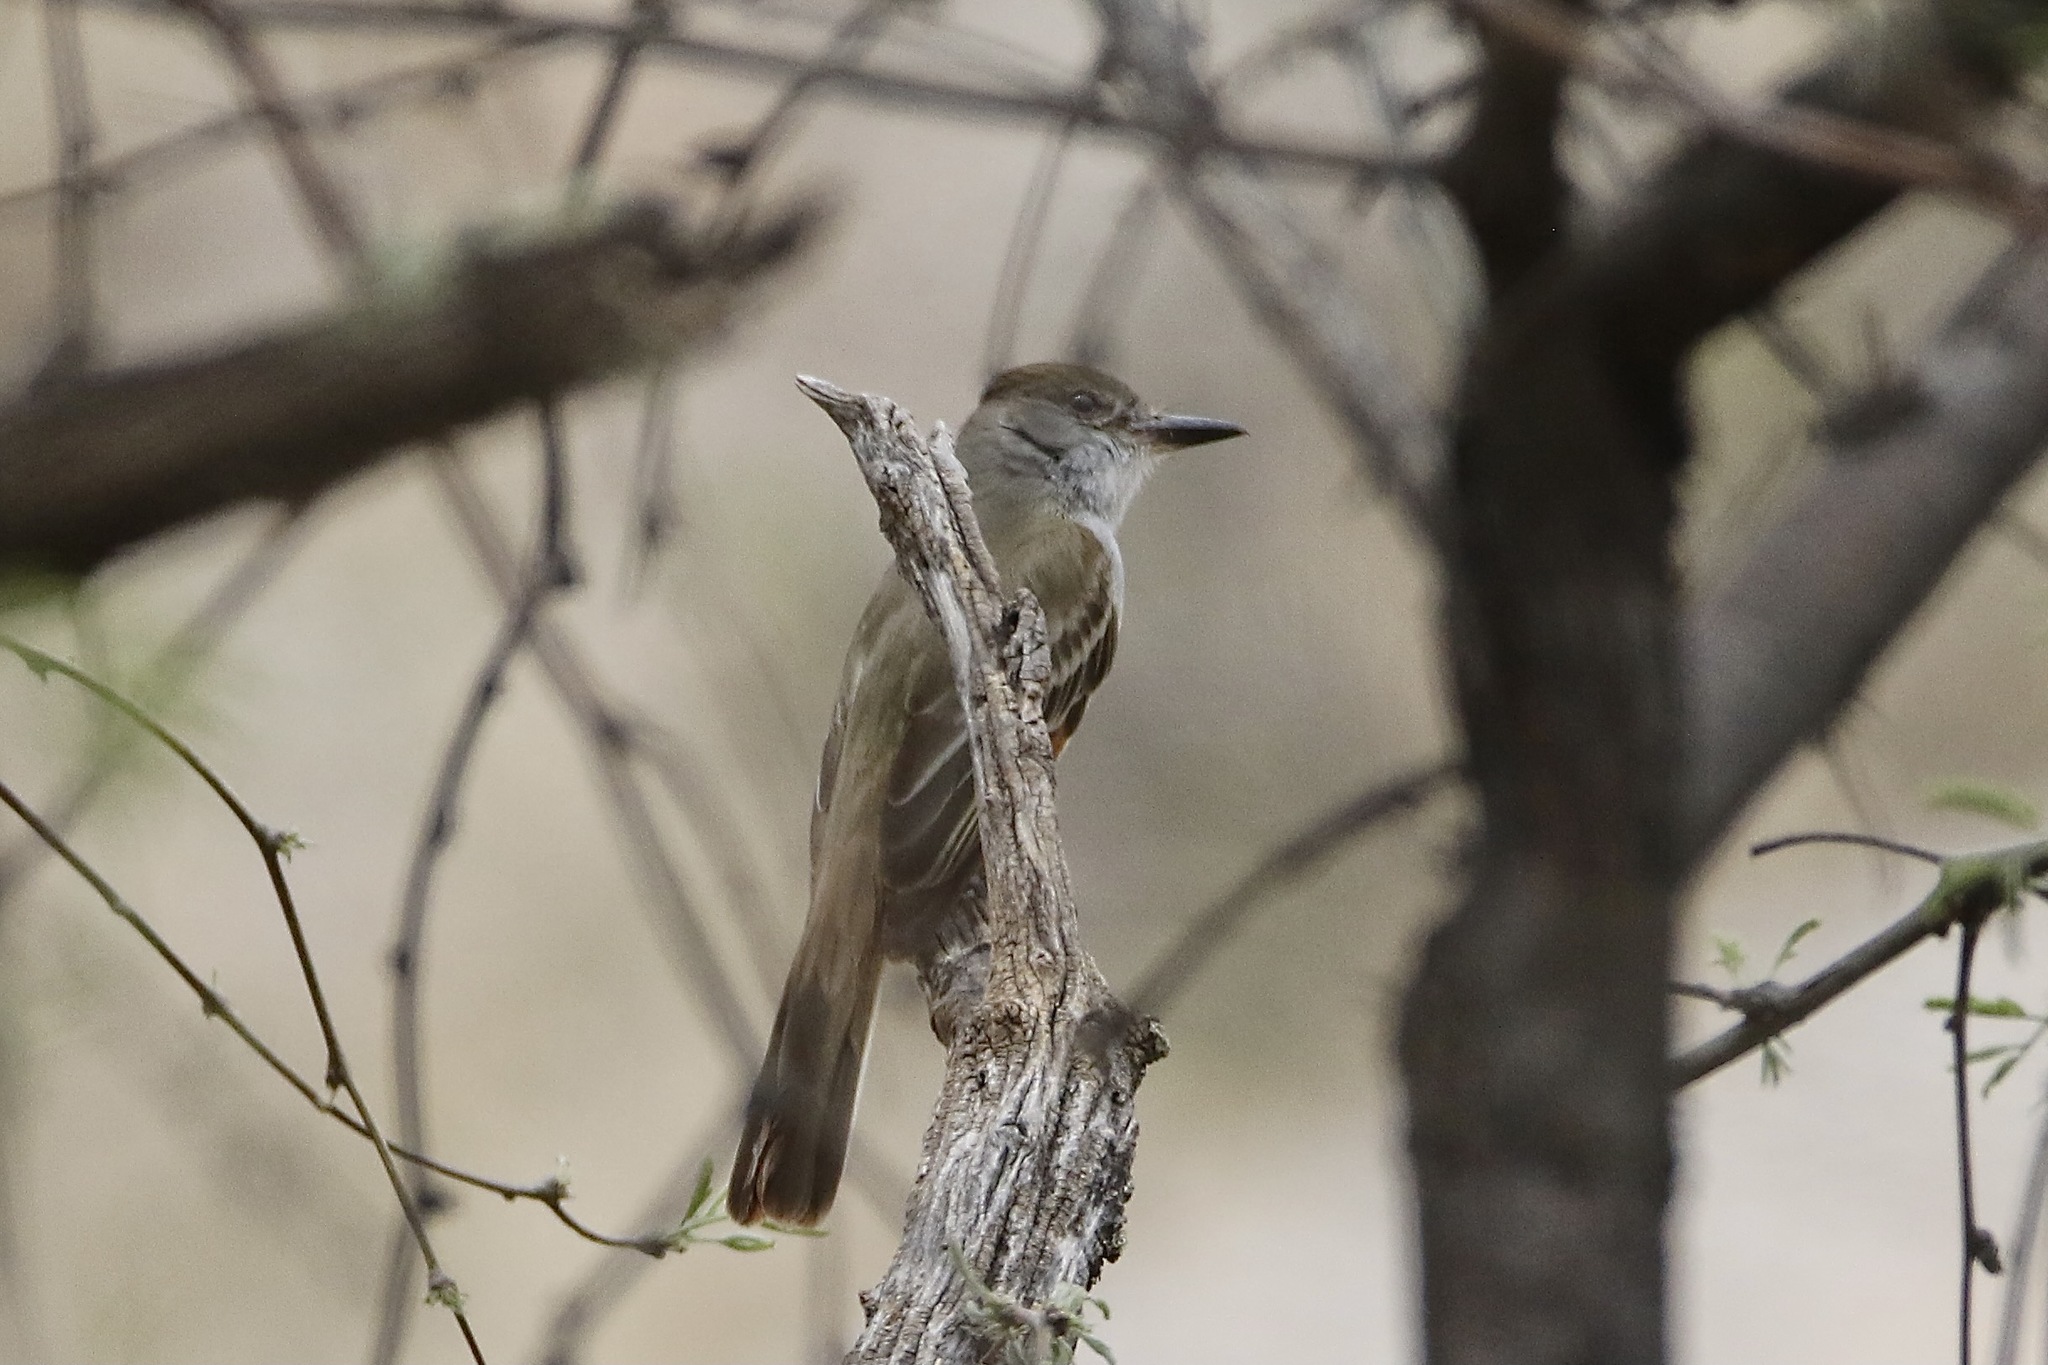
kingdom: Animalia
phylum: Chordata
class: Aves
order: Passeriformes
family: Tyrannidae
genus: Myiarchus
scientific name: Myiarchus tyrannulus
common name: Brown-crested flycatcher
